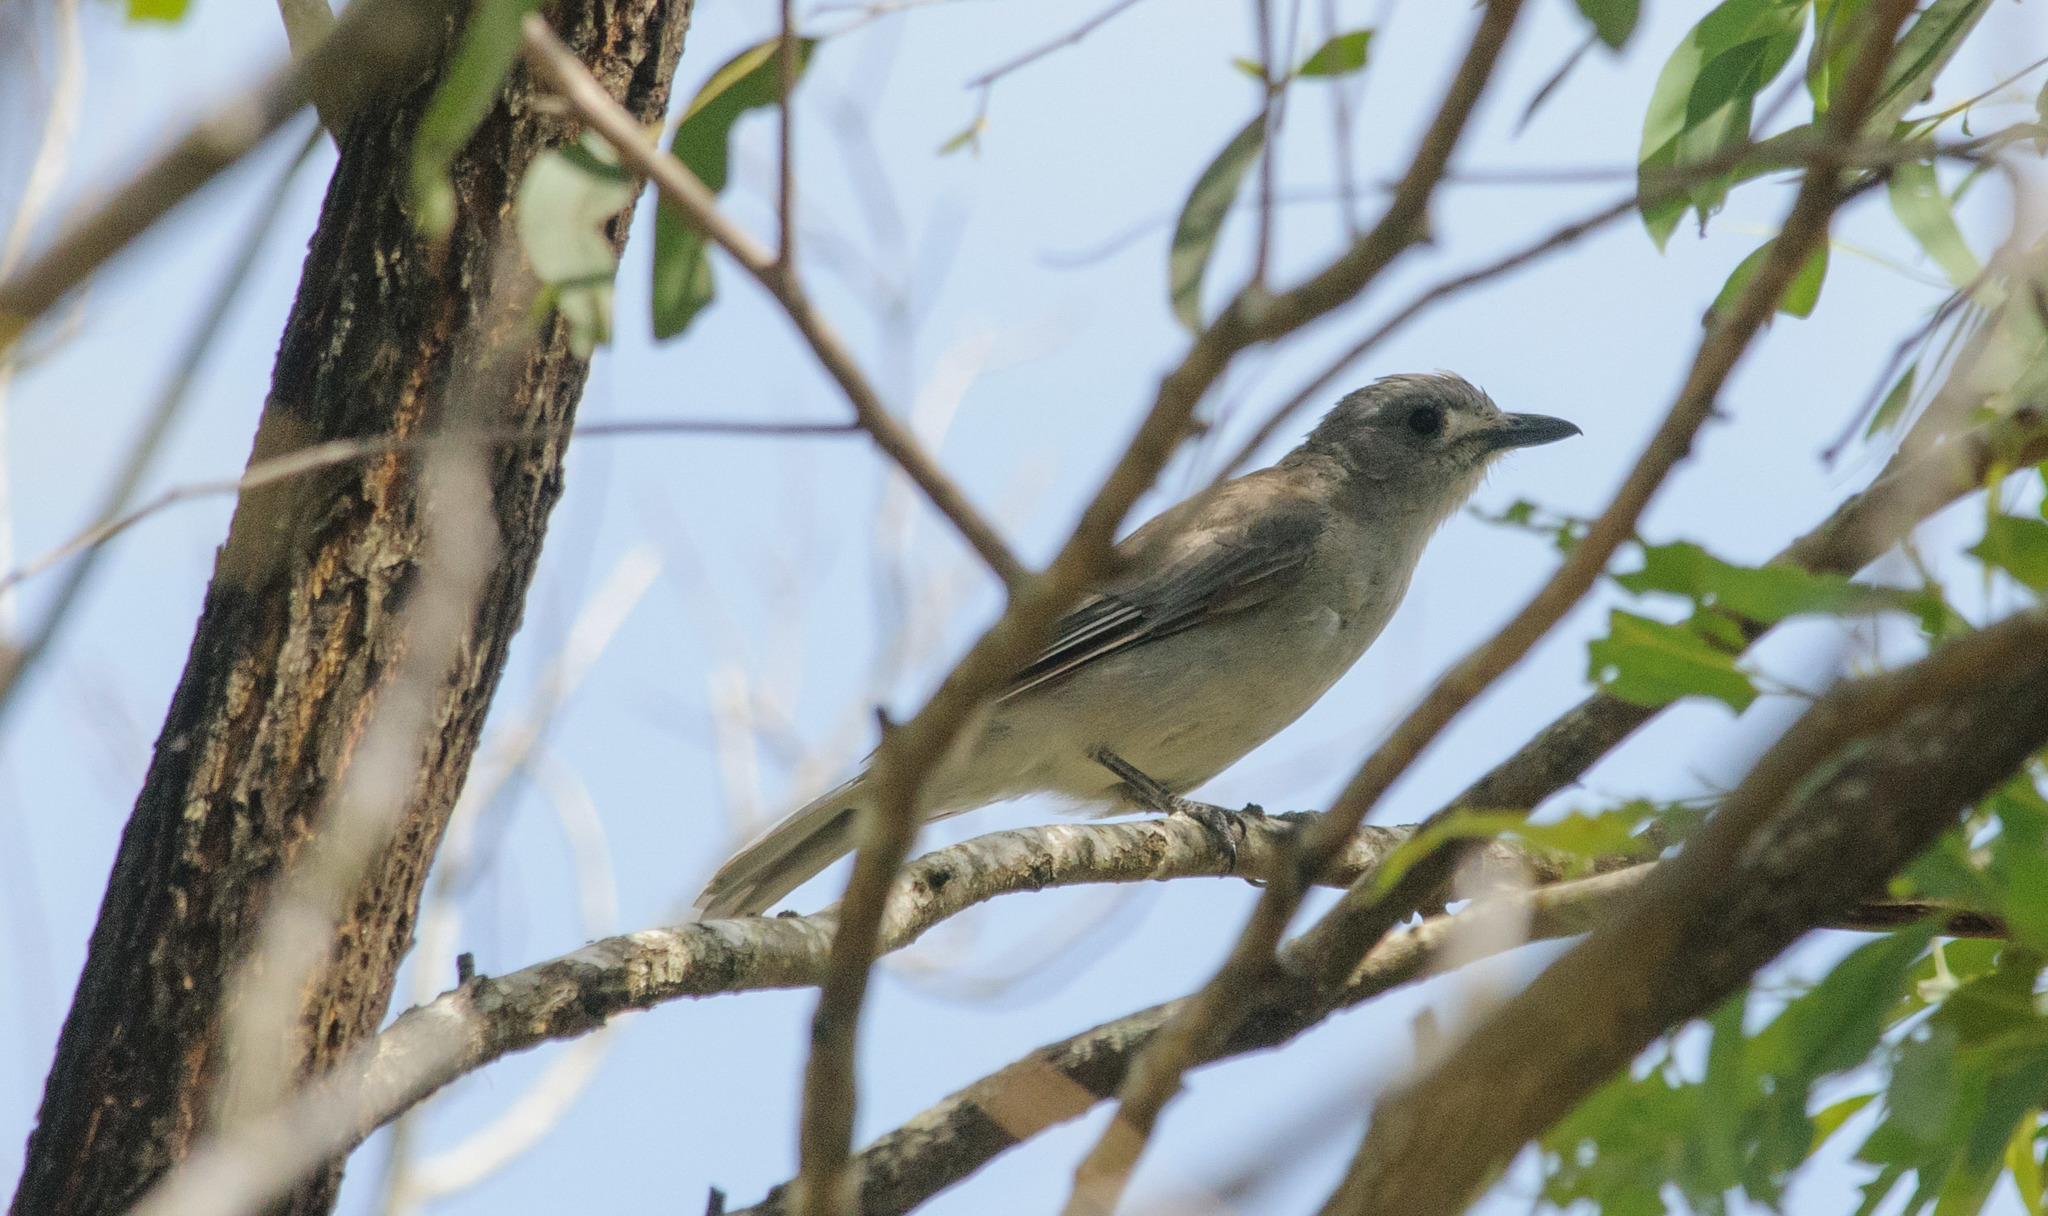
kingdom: Animalia
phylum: Chordata
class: Aves
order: Passeriformes
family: Pachycephalidae
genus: Colluricincla
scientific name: Colluricincla harmonica
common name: Grey shrikethrush
